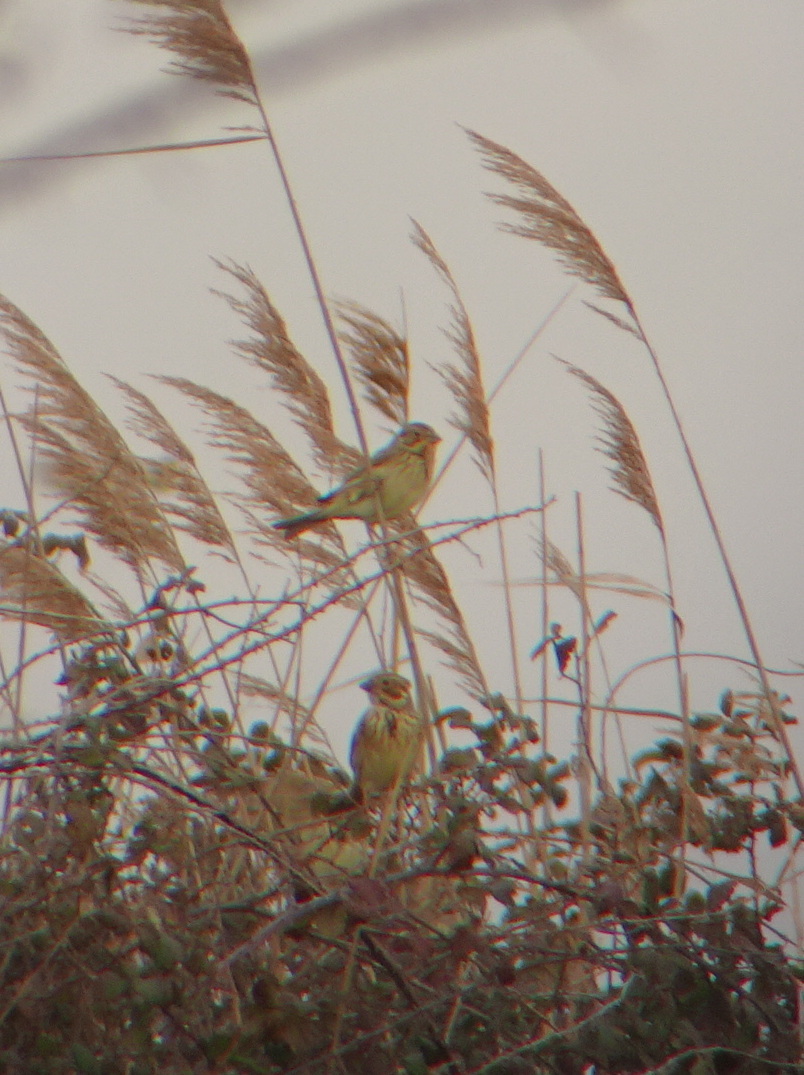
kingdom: Animalia
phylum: Chordata
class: Aves
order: Passeriformes
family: Emberizidae
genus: Emberiza
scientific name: Emberiza schoeniclus
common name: Reed bunting
